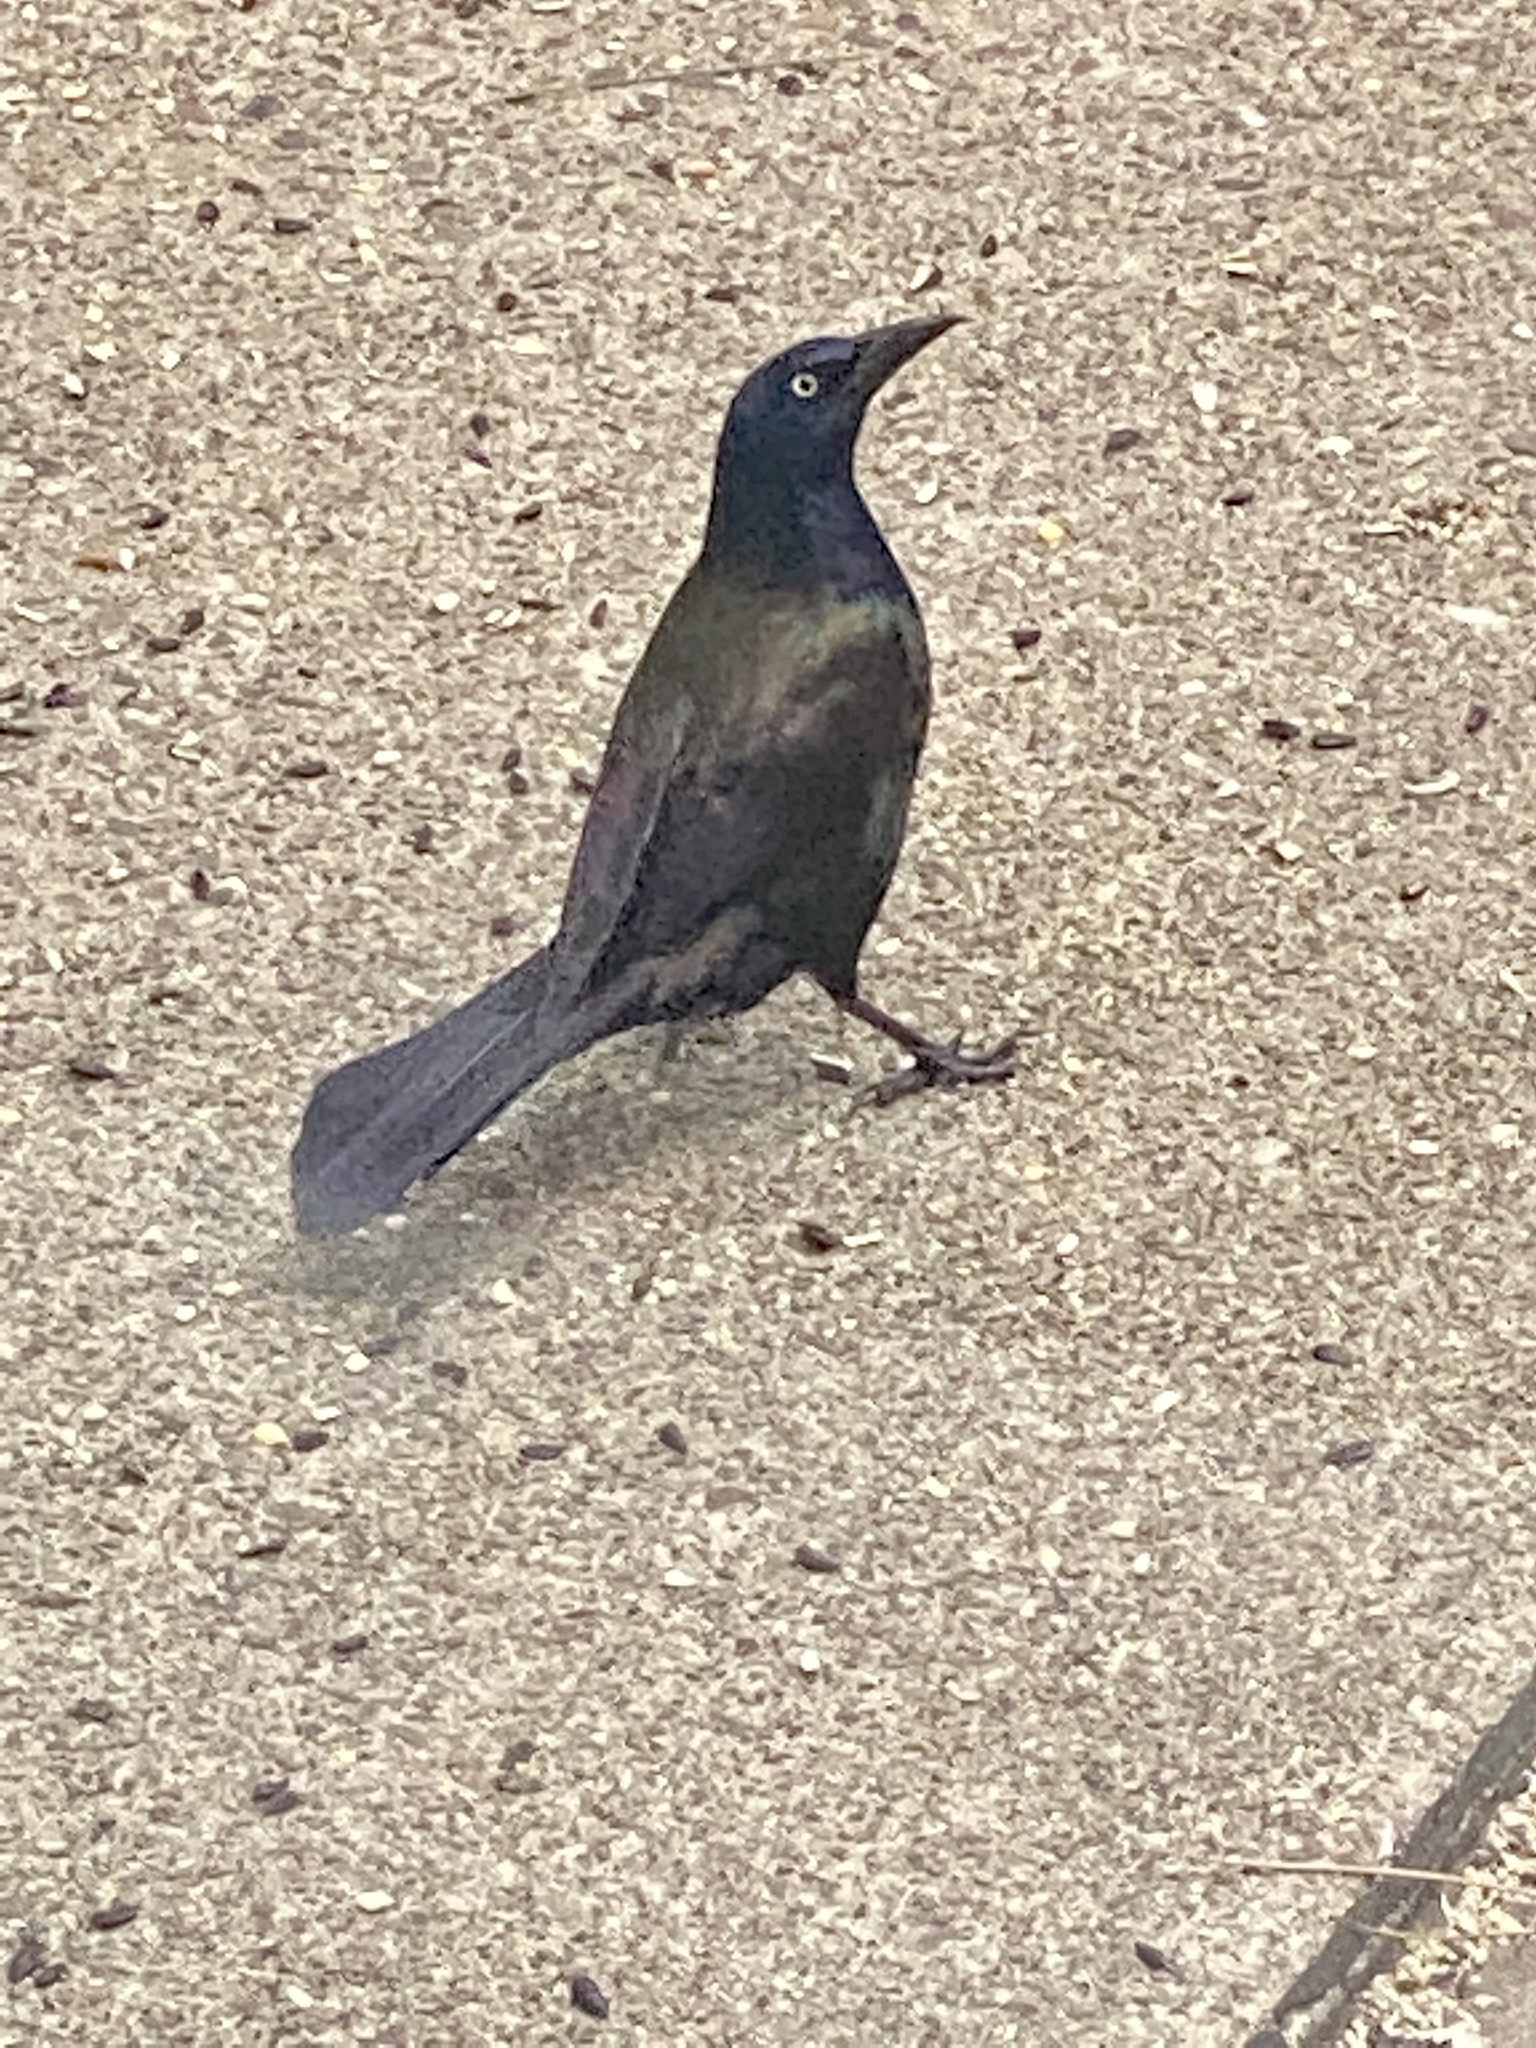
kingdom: Animalia
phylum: Chordata
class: Aves
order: Passeriformes
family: Icteridae
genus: Quiscalus
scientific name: Quiscalus quiscula
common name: Common grackle
